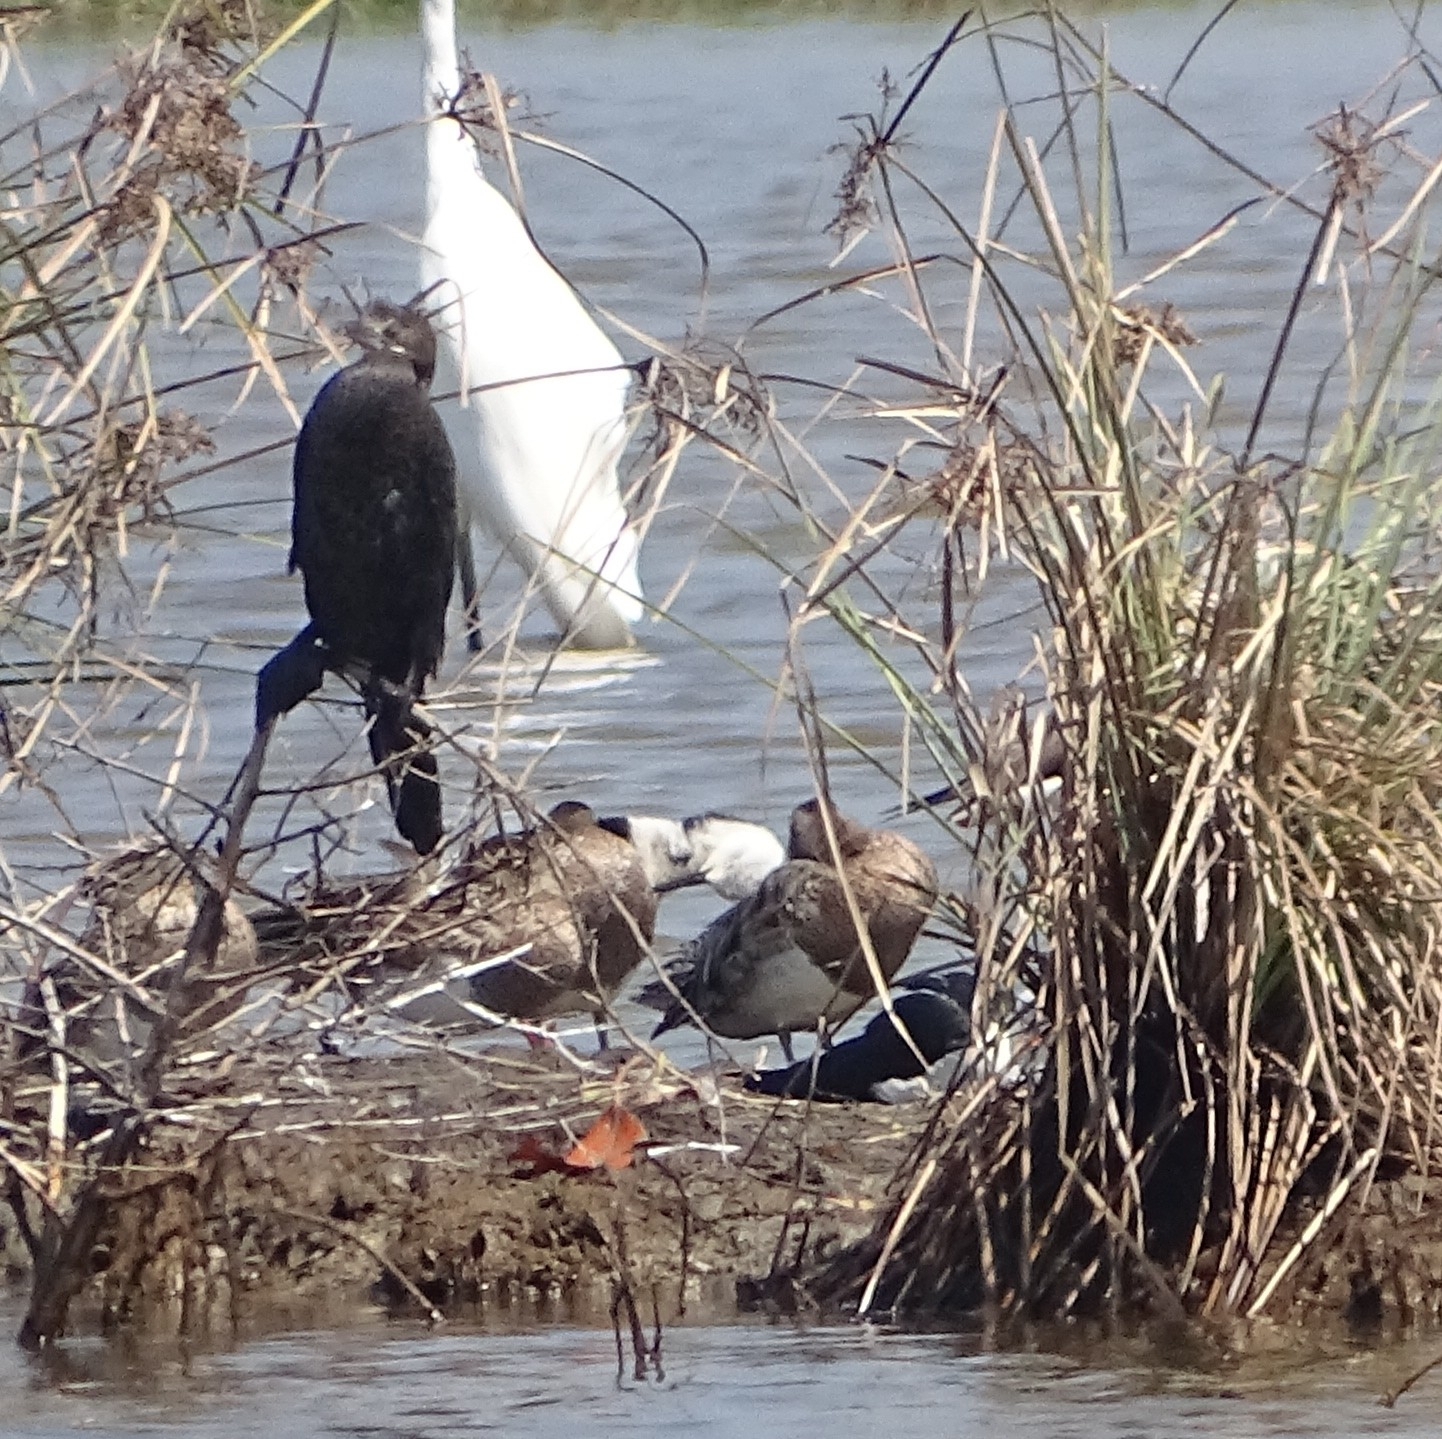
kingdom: Animalia
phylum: Chordata
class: Aves
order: Suliformes
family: Phalacrocoracidae
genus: Microcarbo
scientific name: Microcarbo niger
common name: Little cormorant
